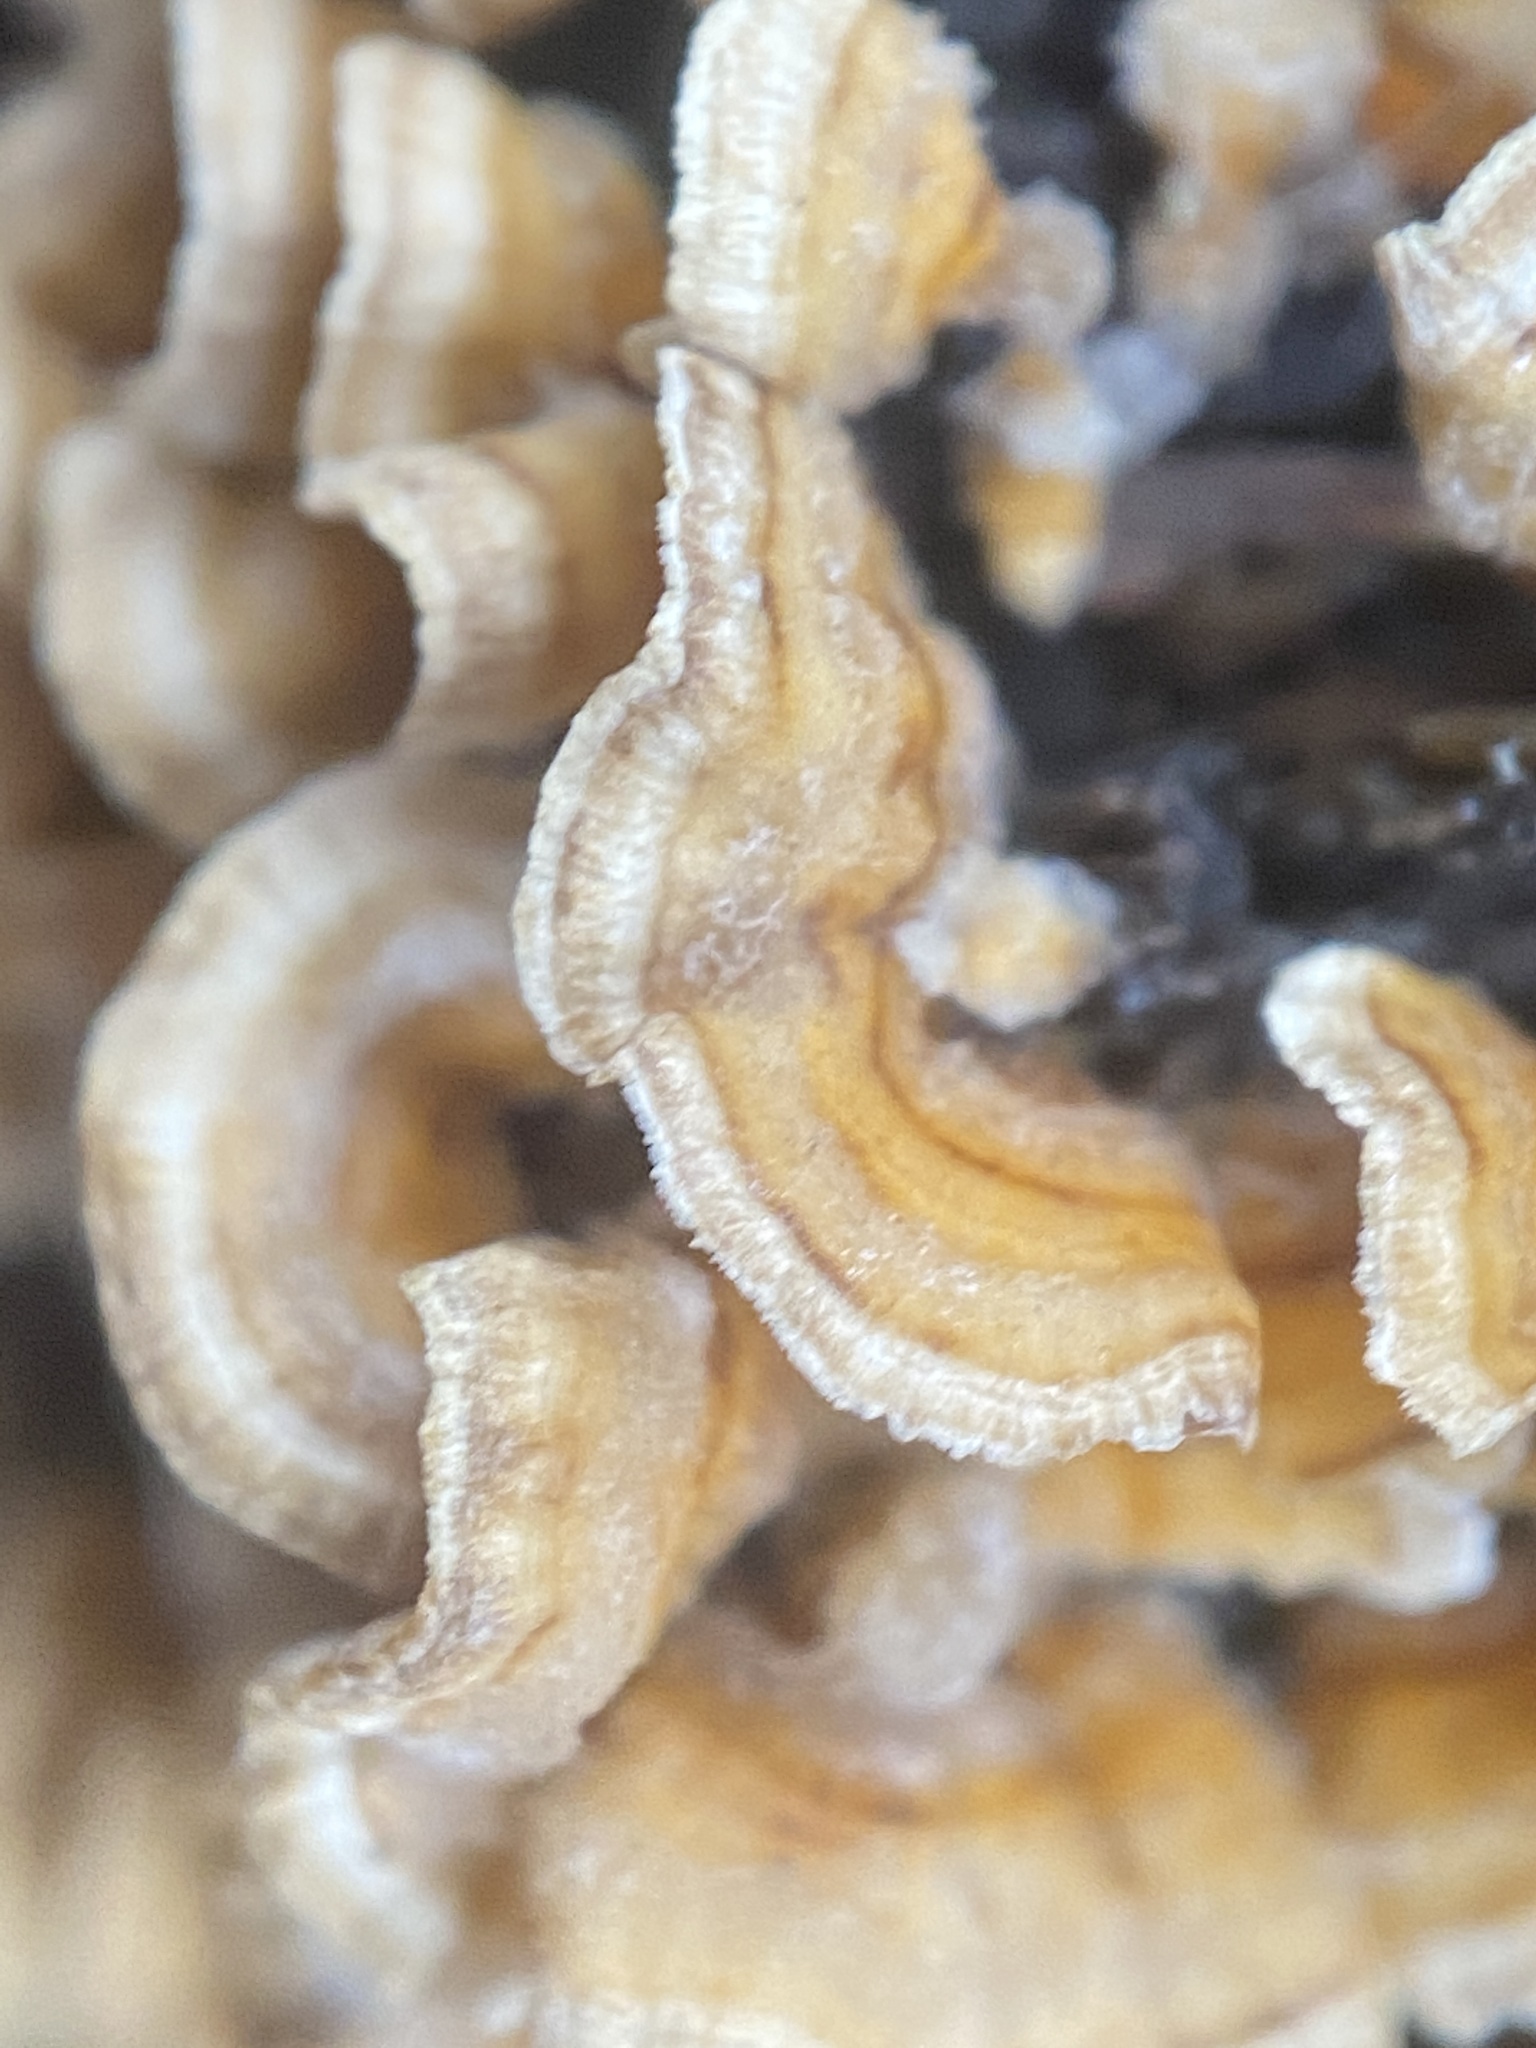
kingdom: Fungi
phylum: Basidiomycota
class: Agaricomycetes
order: Russulales
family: Stereaceae
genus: Stereum
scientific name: Stereum complicatum
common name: Crowded parchment
